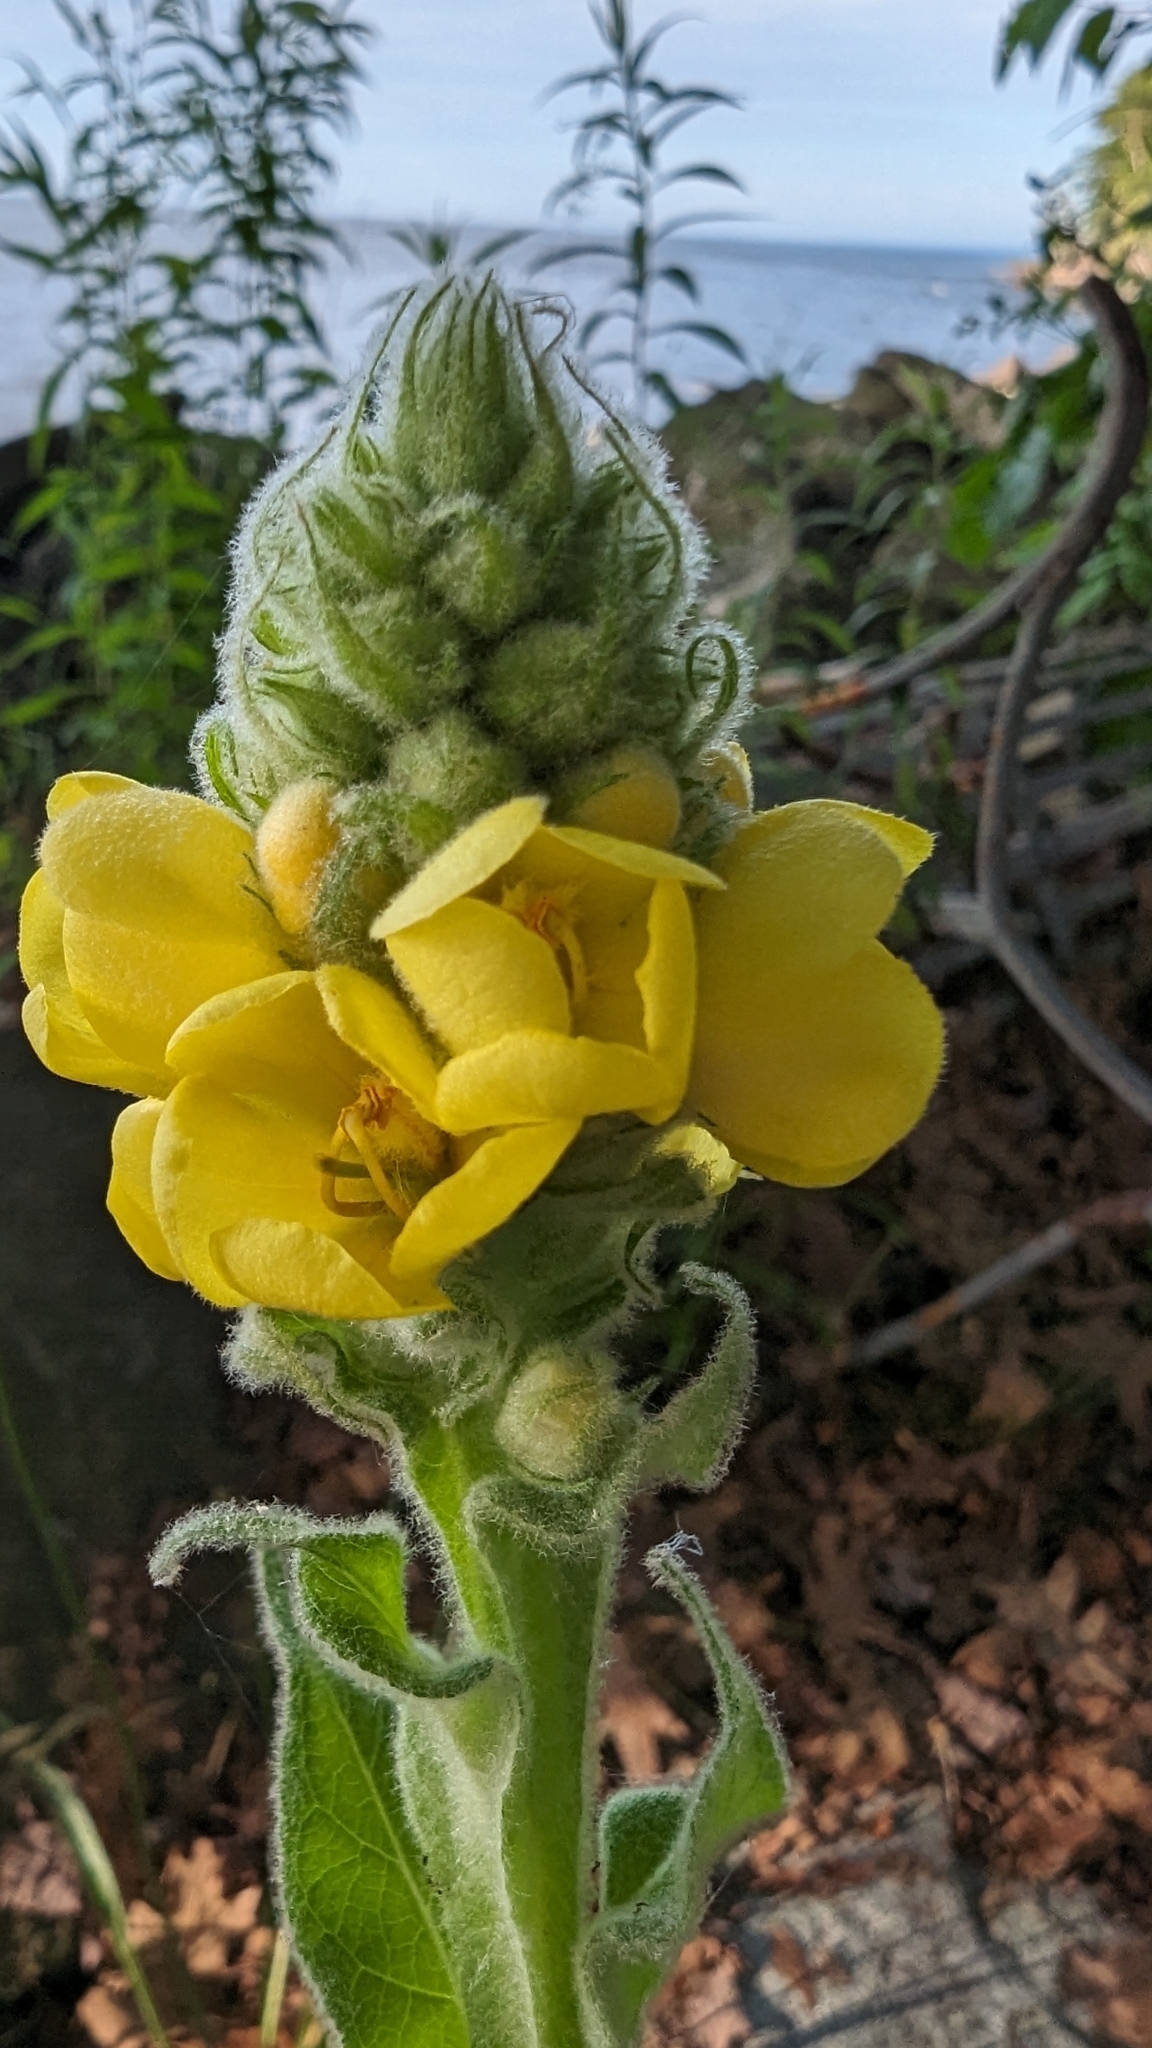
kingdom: Plantae
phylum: Tracheophyta
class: Magnoliopsida
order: Lamiales
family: Scrophulariaceae
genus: Verbascum
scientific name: Verbascum thapsus
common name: Common mullein
